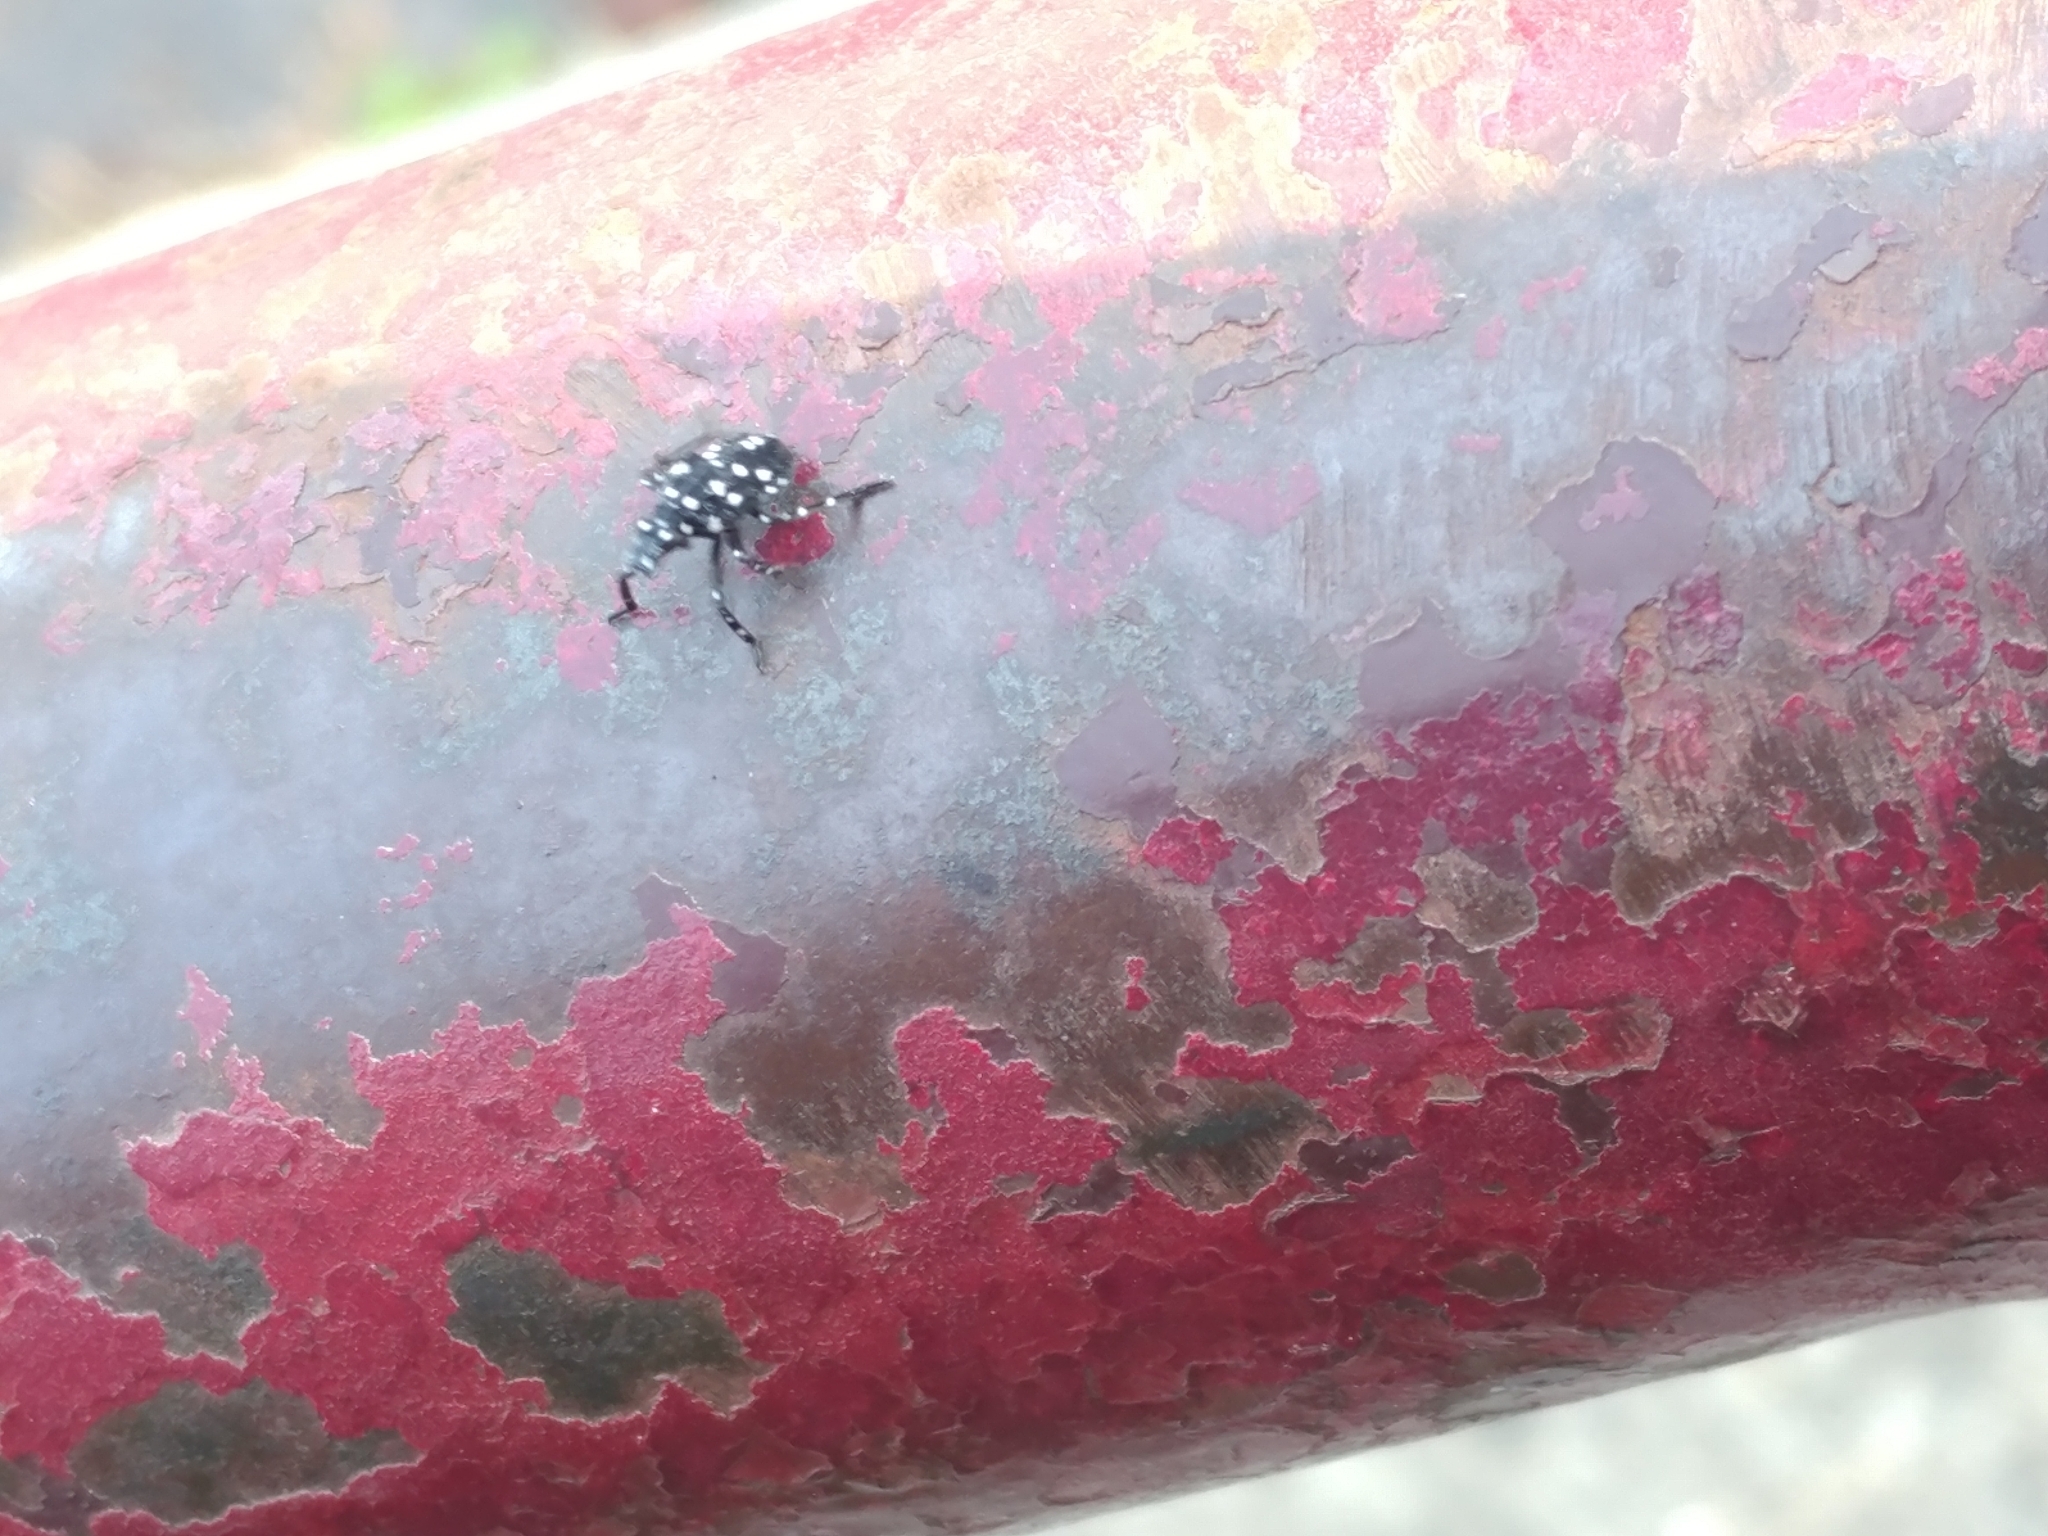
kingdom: Animalia
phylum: Arthropoda
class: Insecta
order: Hemiptera
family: Fulgoridae
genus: Lycorma
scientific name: Lycorma delicatula
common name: Spotted lanternfly
